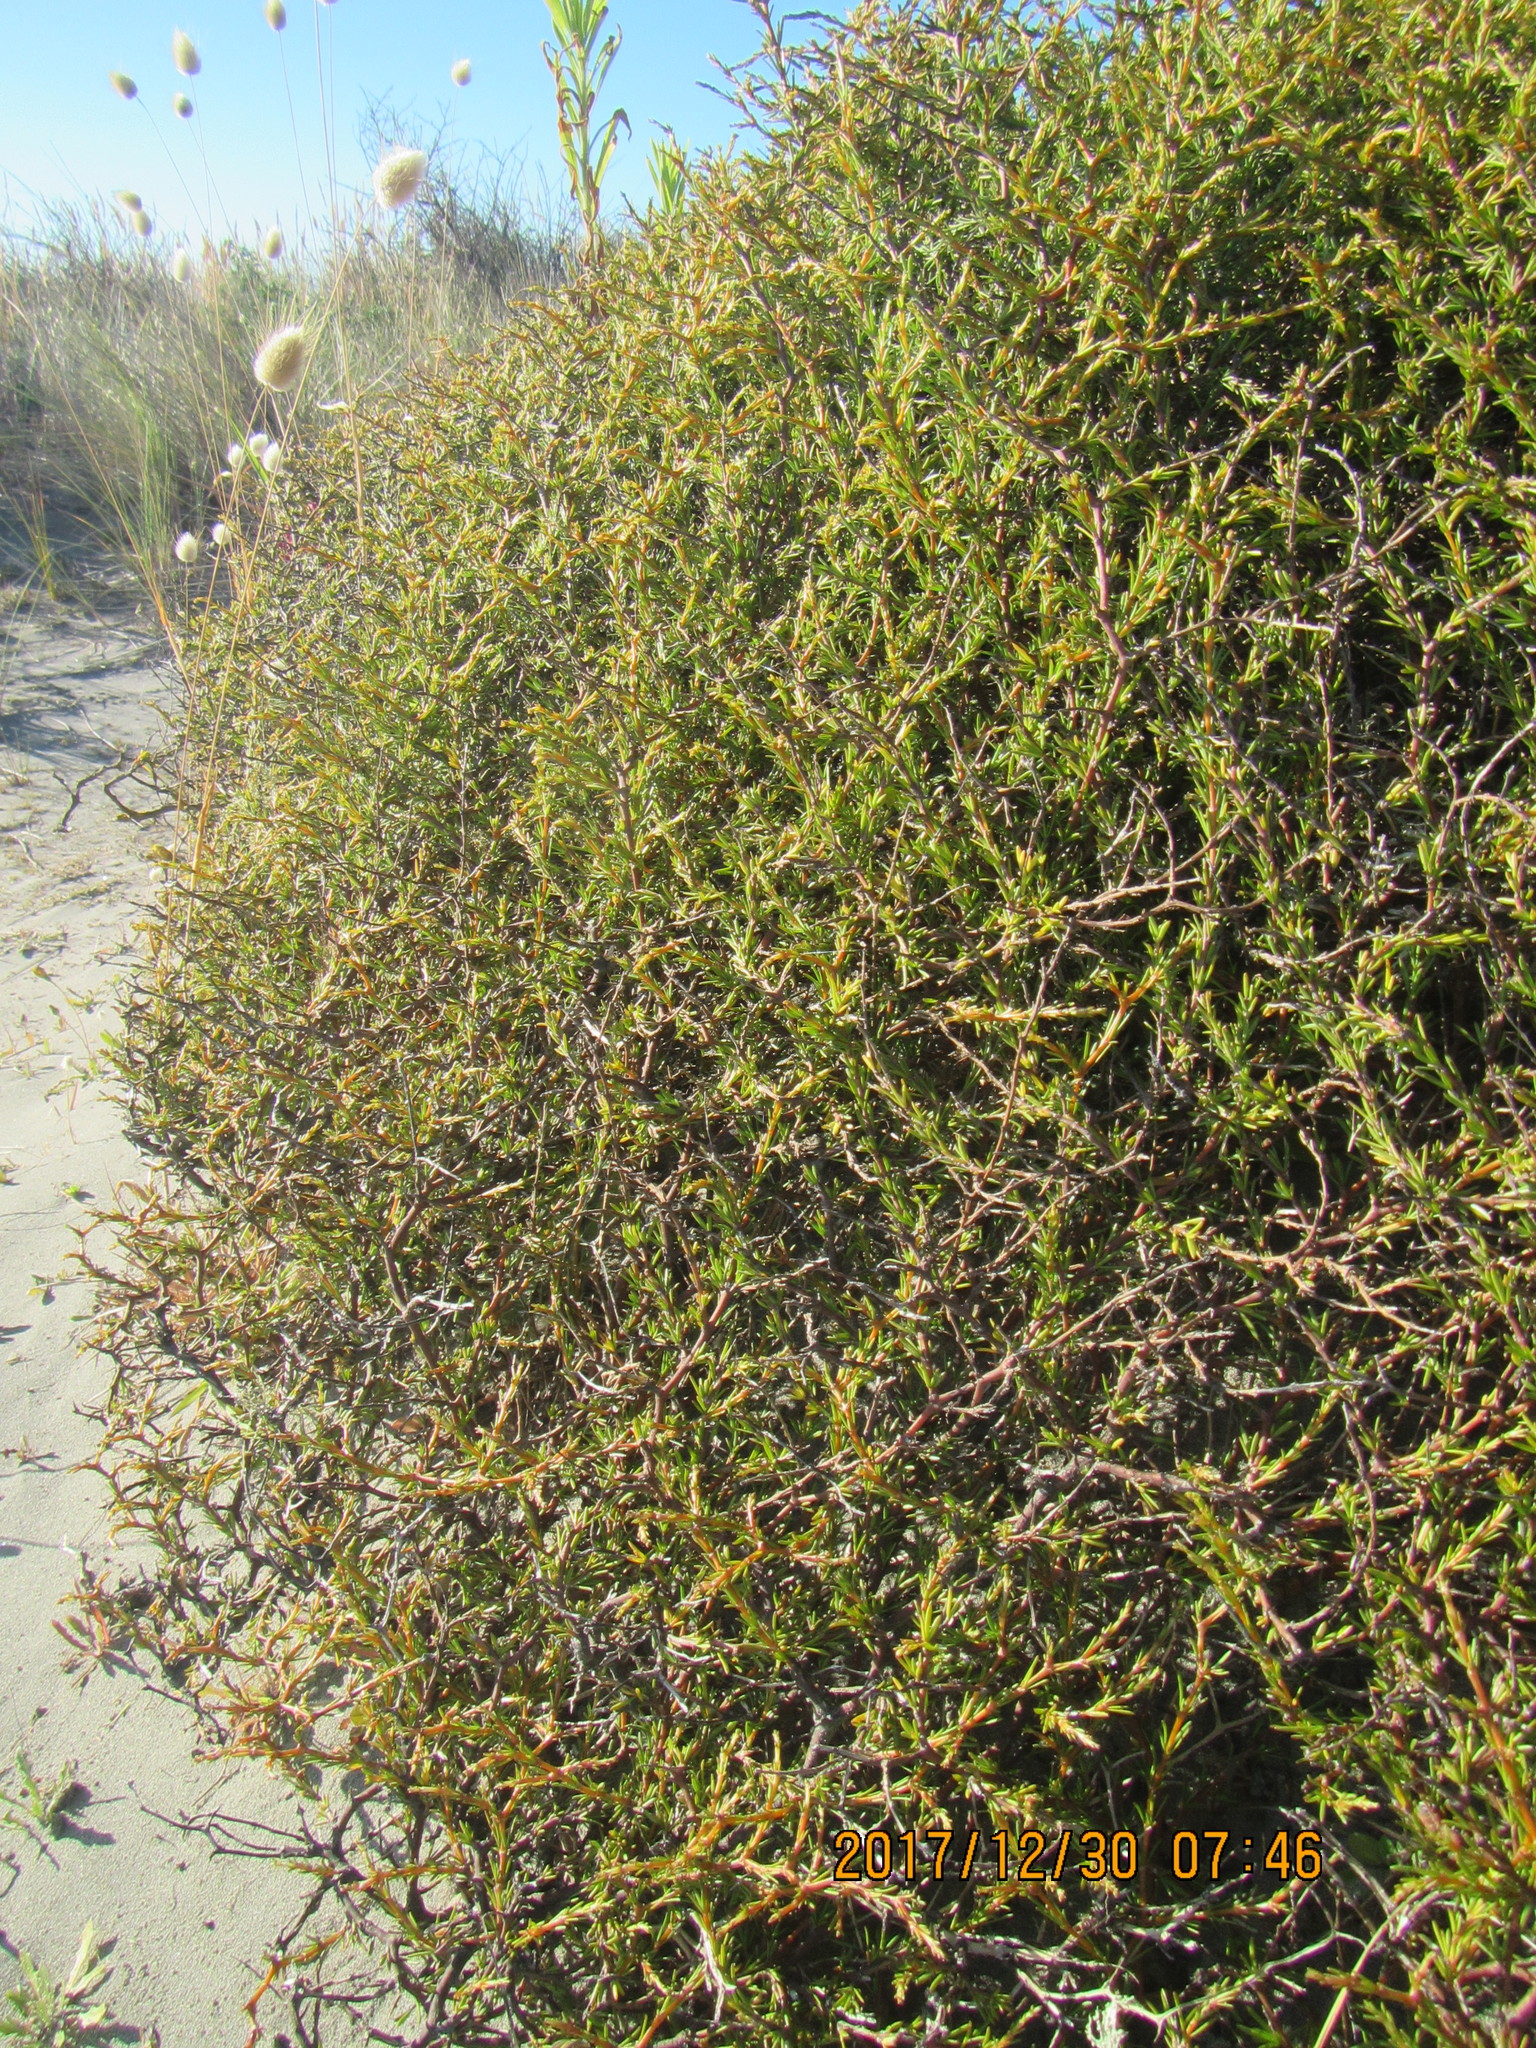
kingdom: Plantae
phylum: Tracheophyta
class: Magnoliopsida
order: Gentianales
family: Rubiaceae
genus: Coprosma
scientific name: Coprosma acerosa
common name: Sand coprosma
